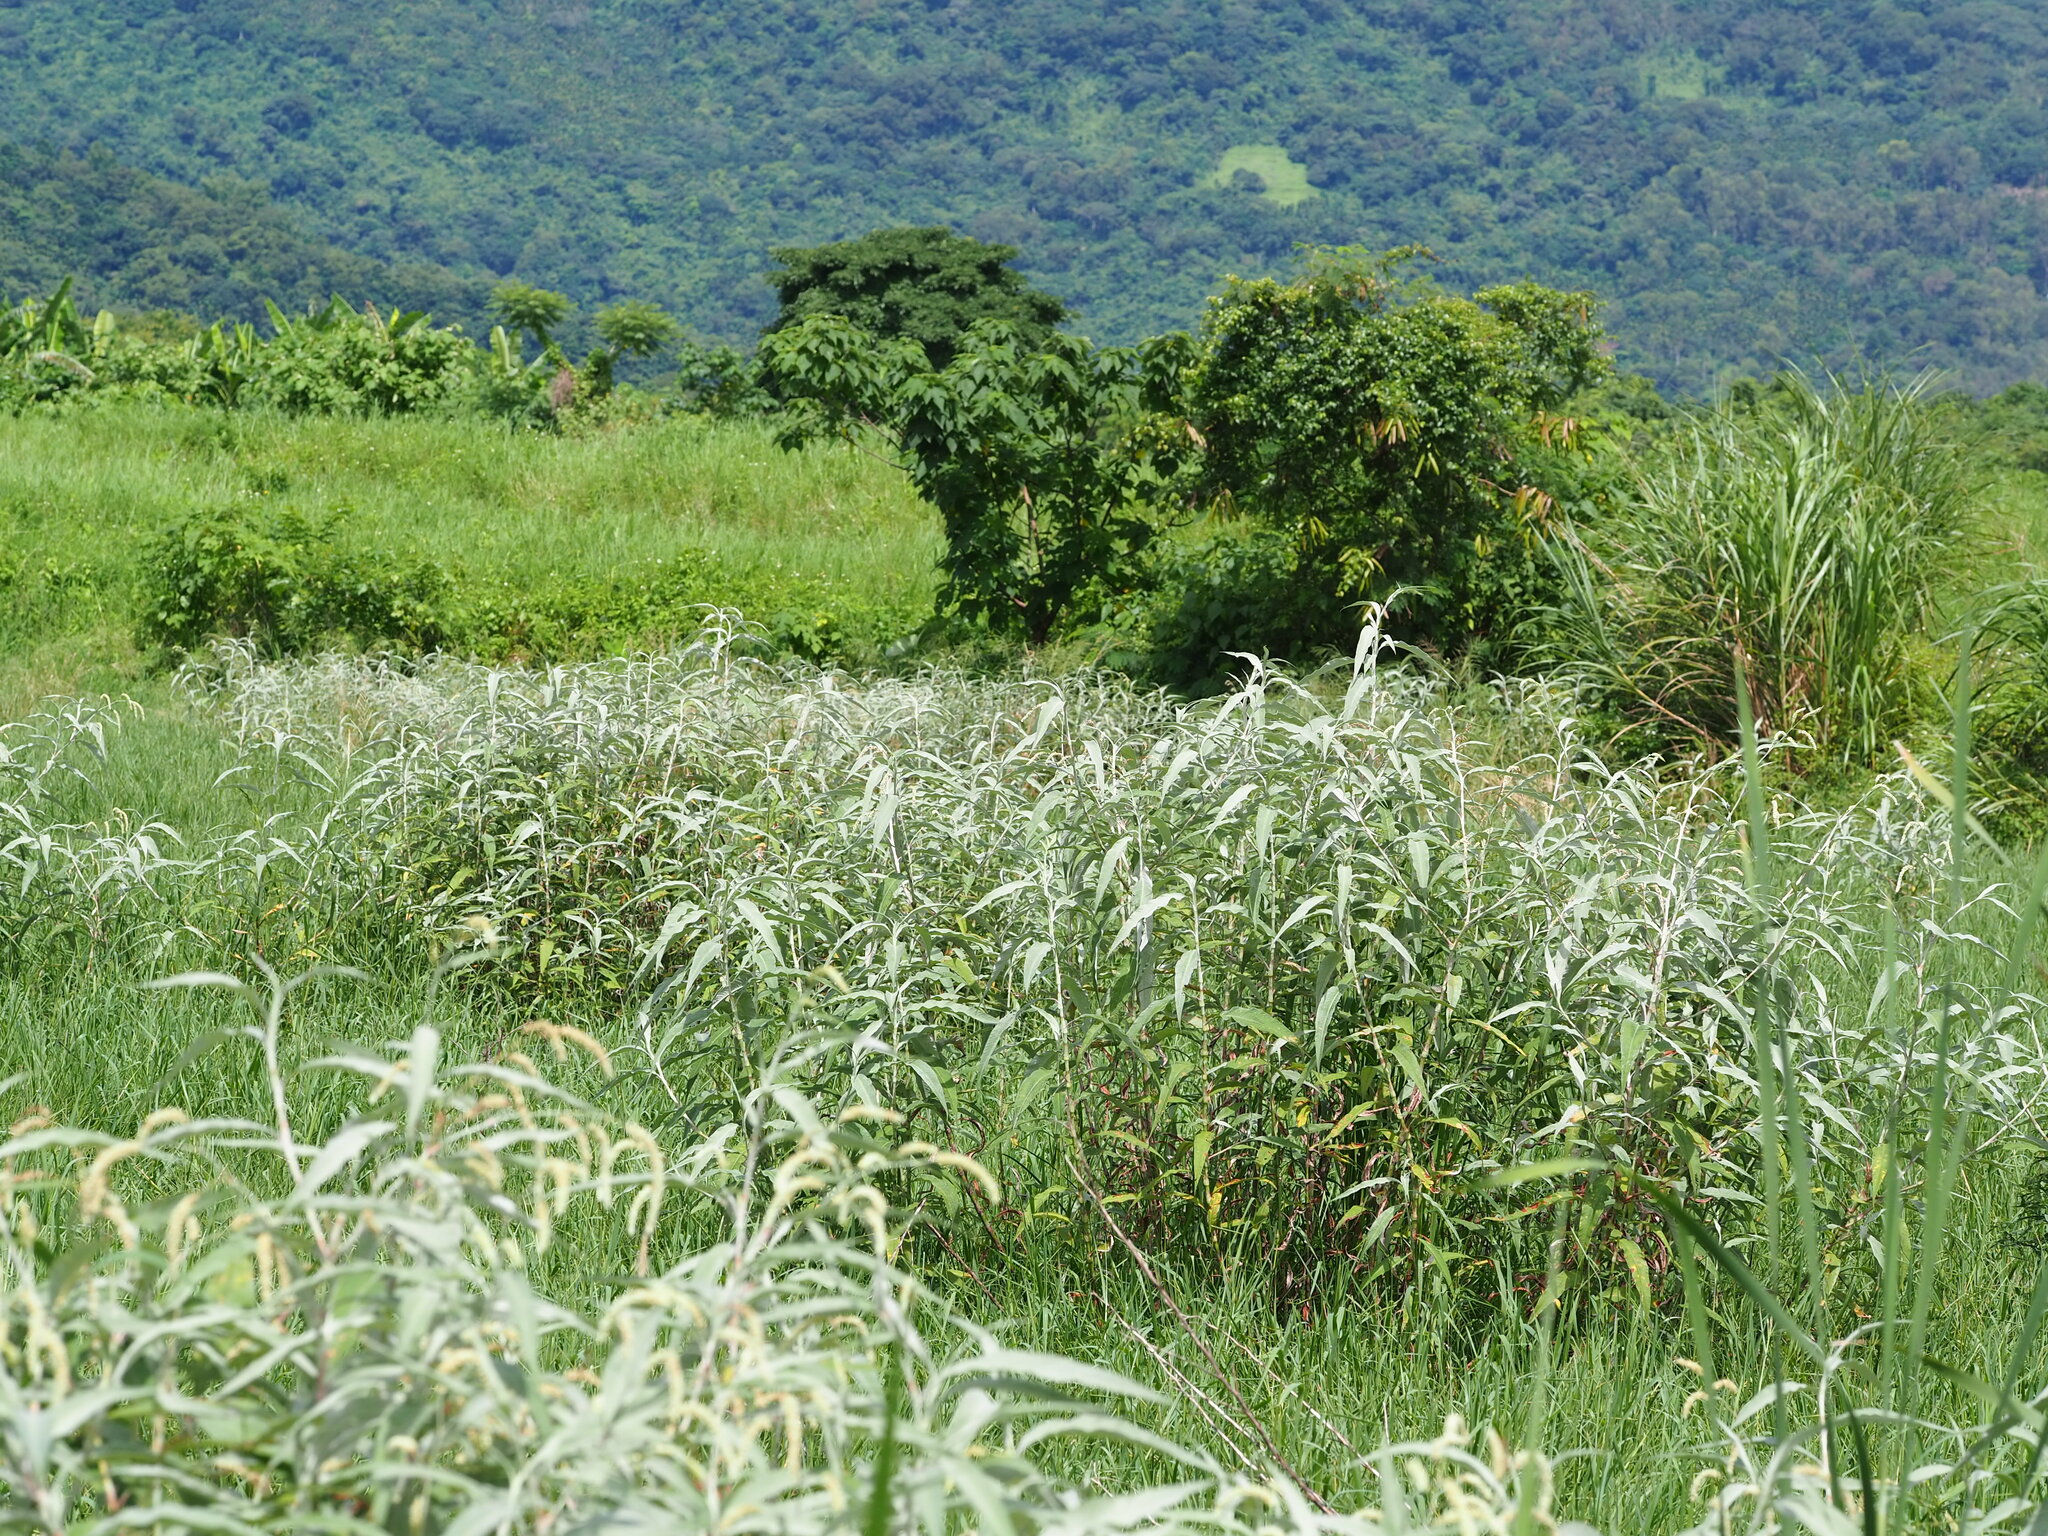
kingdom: Plantae
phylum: Tracheophyta
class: Magnoliopsida
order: Caryophyllales
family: Polygonaceae
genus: Persicaria
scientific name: Persicaria lanata
